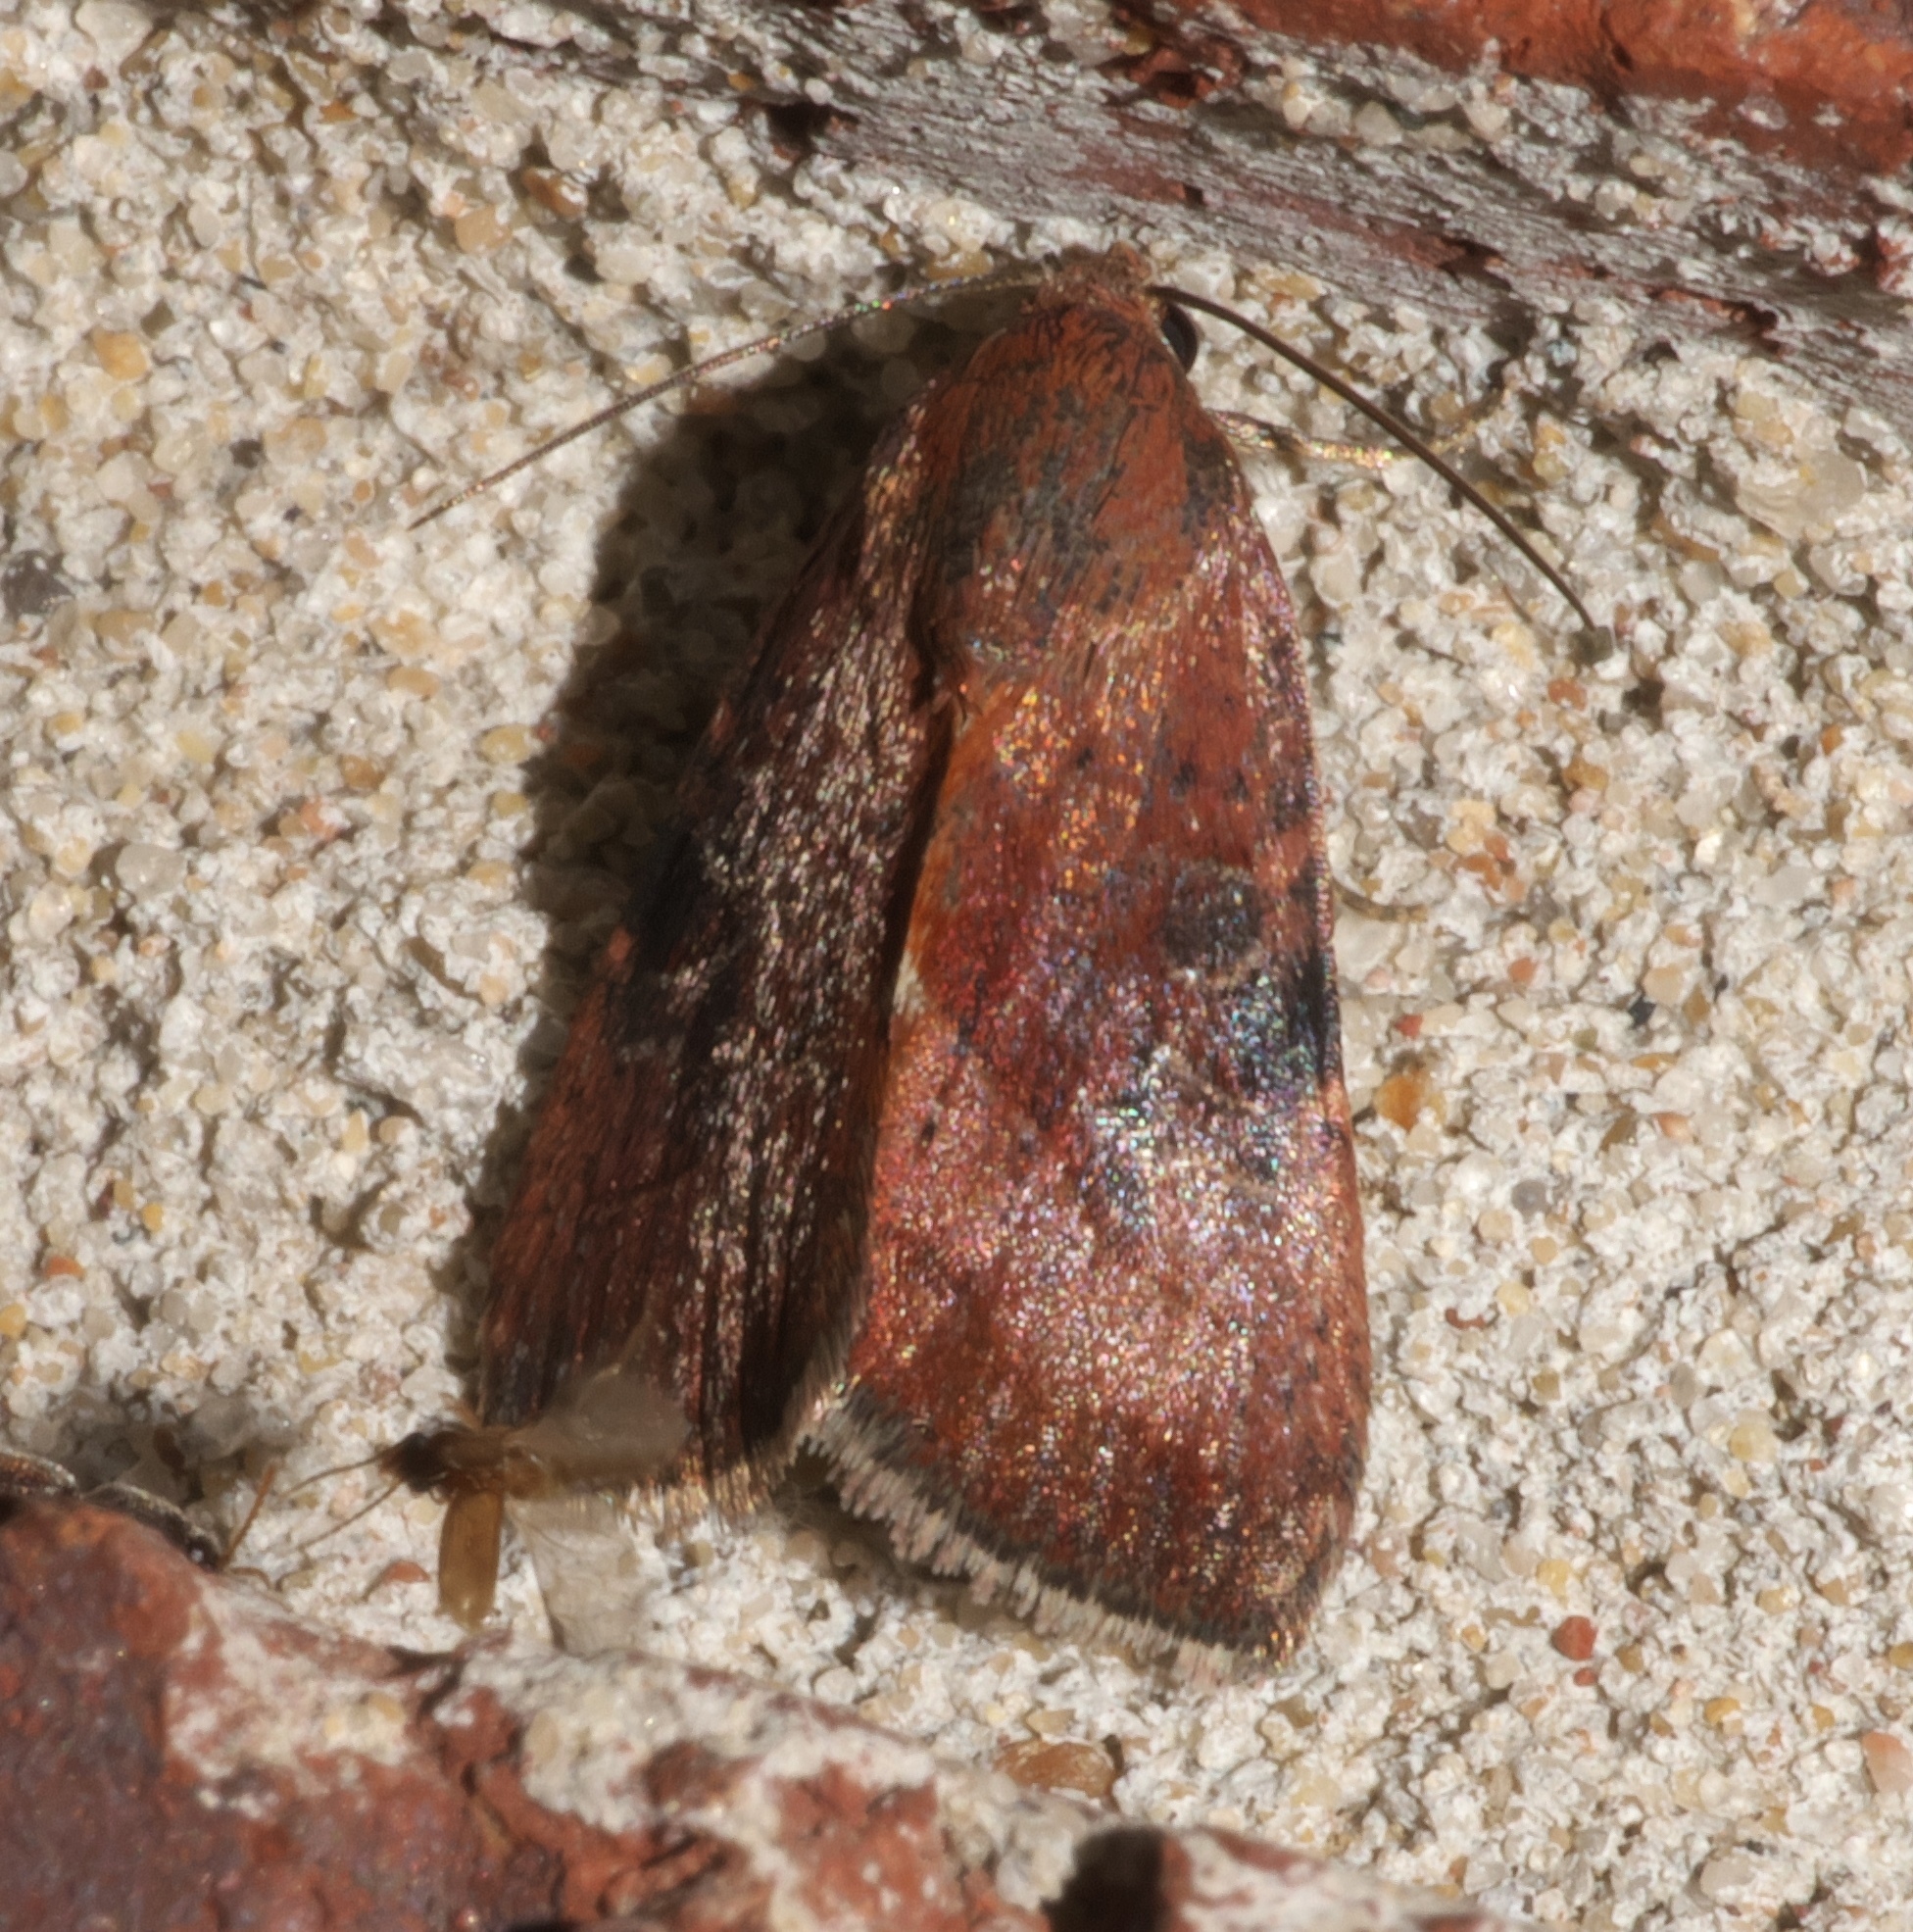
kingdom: Animalia
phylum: Arthropoda
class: Insecta
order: Lepidoptera
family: Noctuidae
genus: Galgula
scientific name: Galgula partita
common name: Wedgeling
